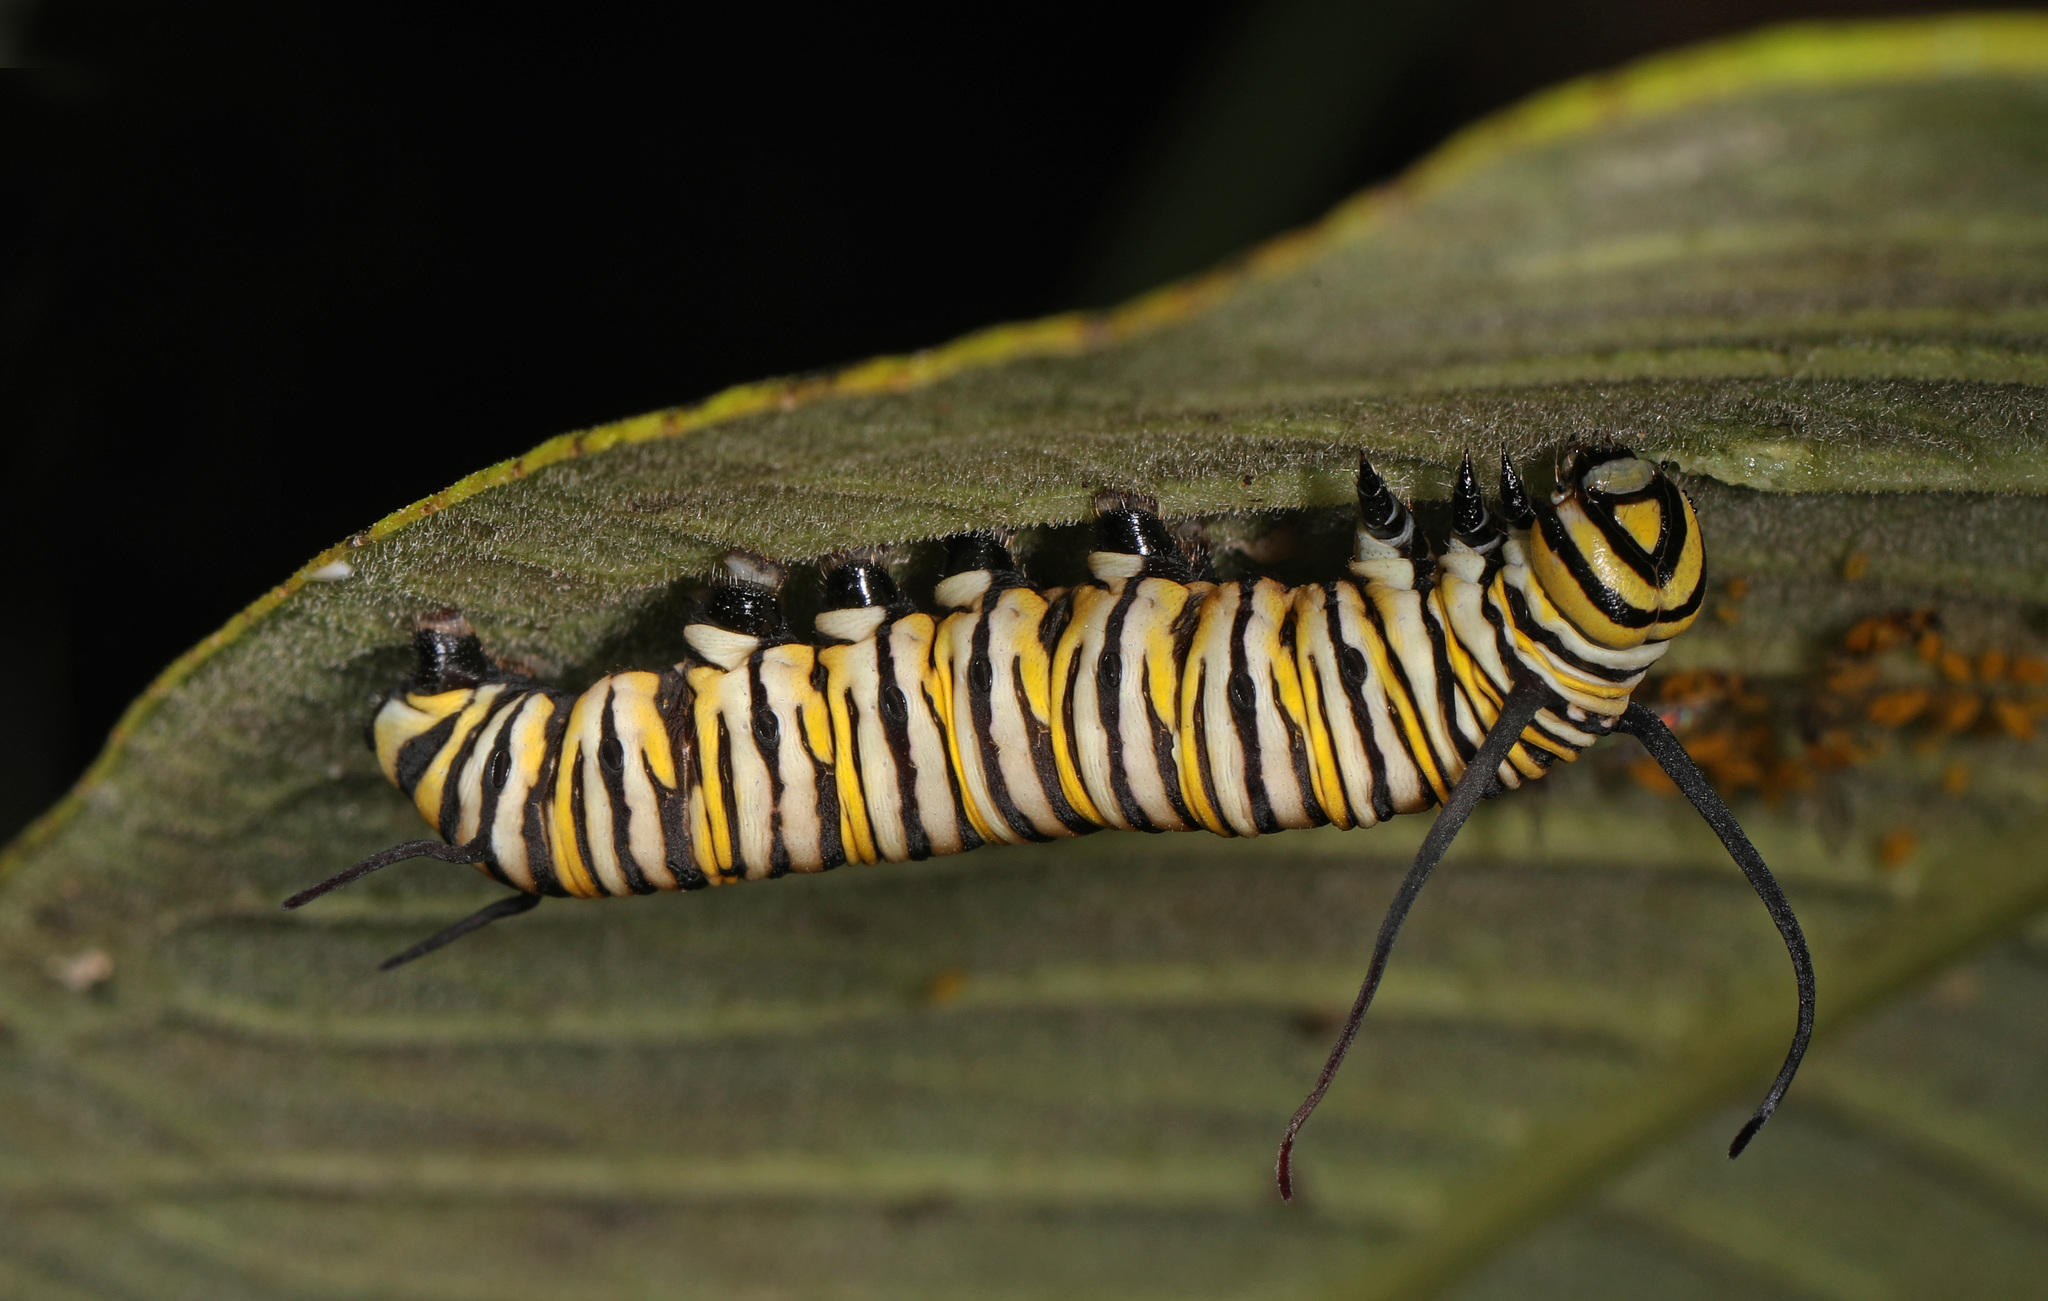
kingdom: Animalia
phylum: Arthropoda
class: Insecta
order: Lepidoptera
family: Nymphalidae
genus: Danaus
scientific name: Danaus plexippus
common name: Monarch
